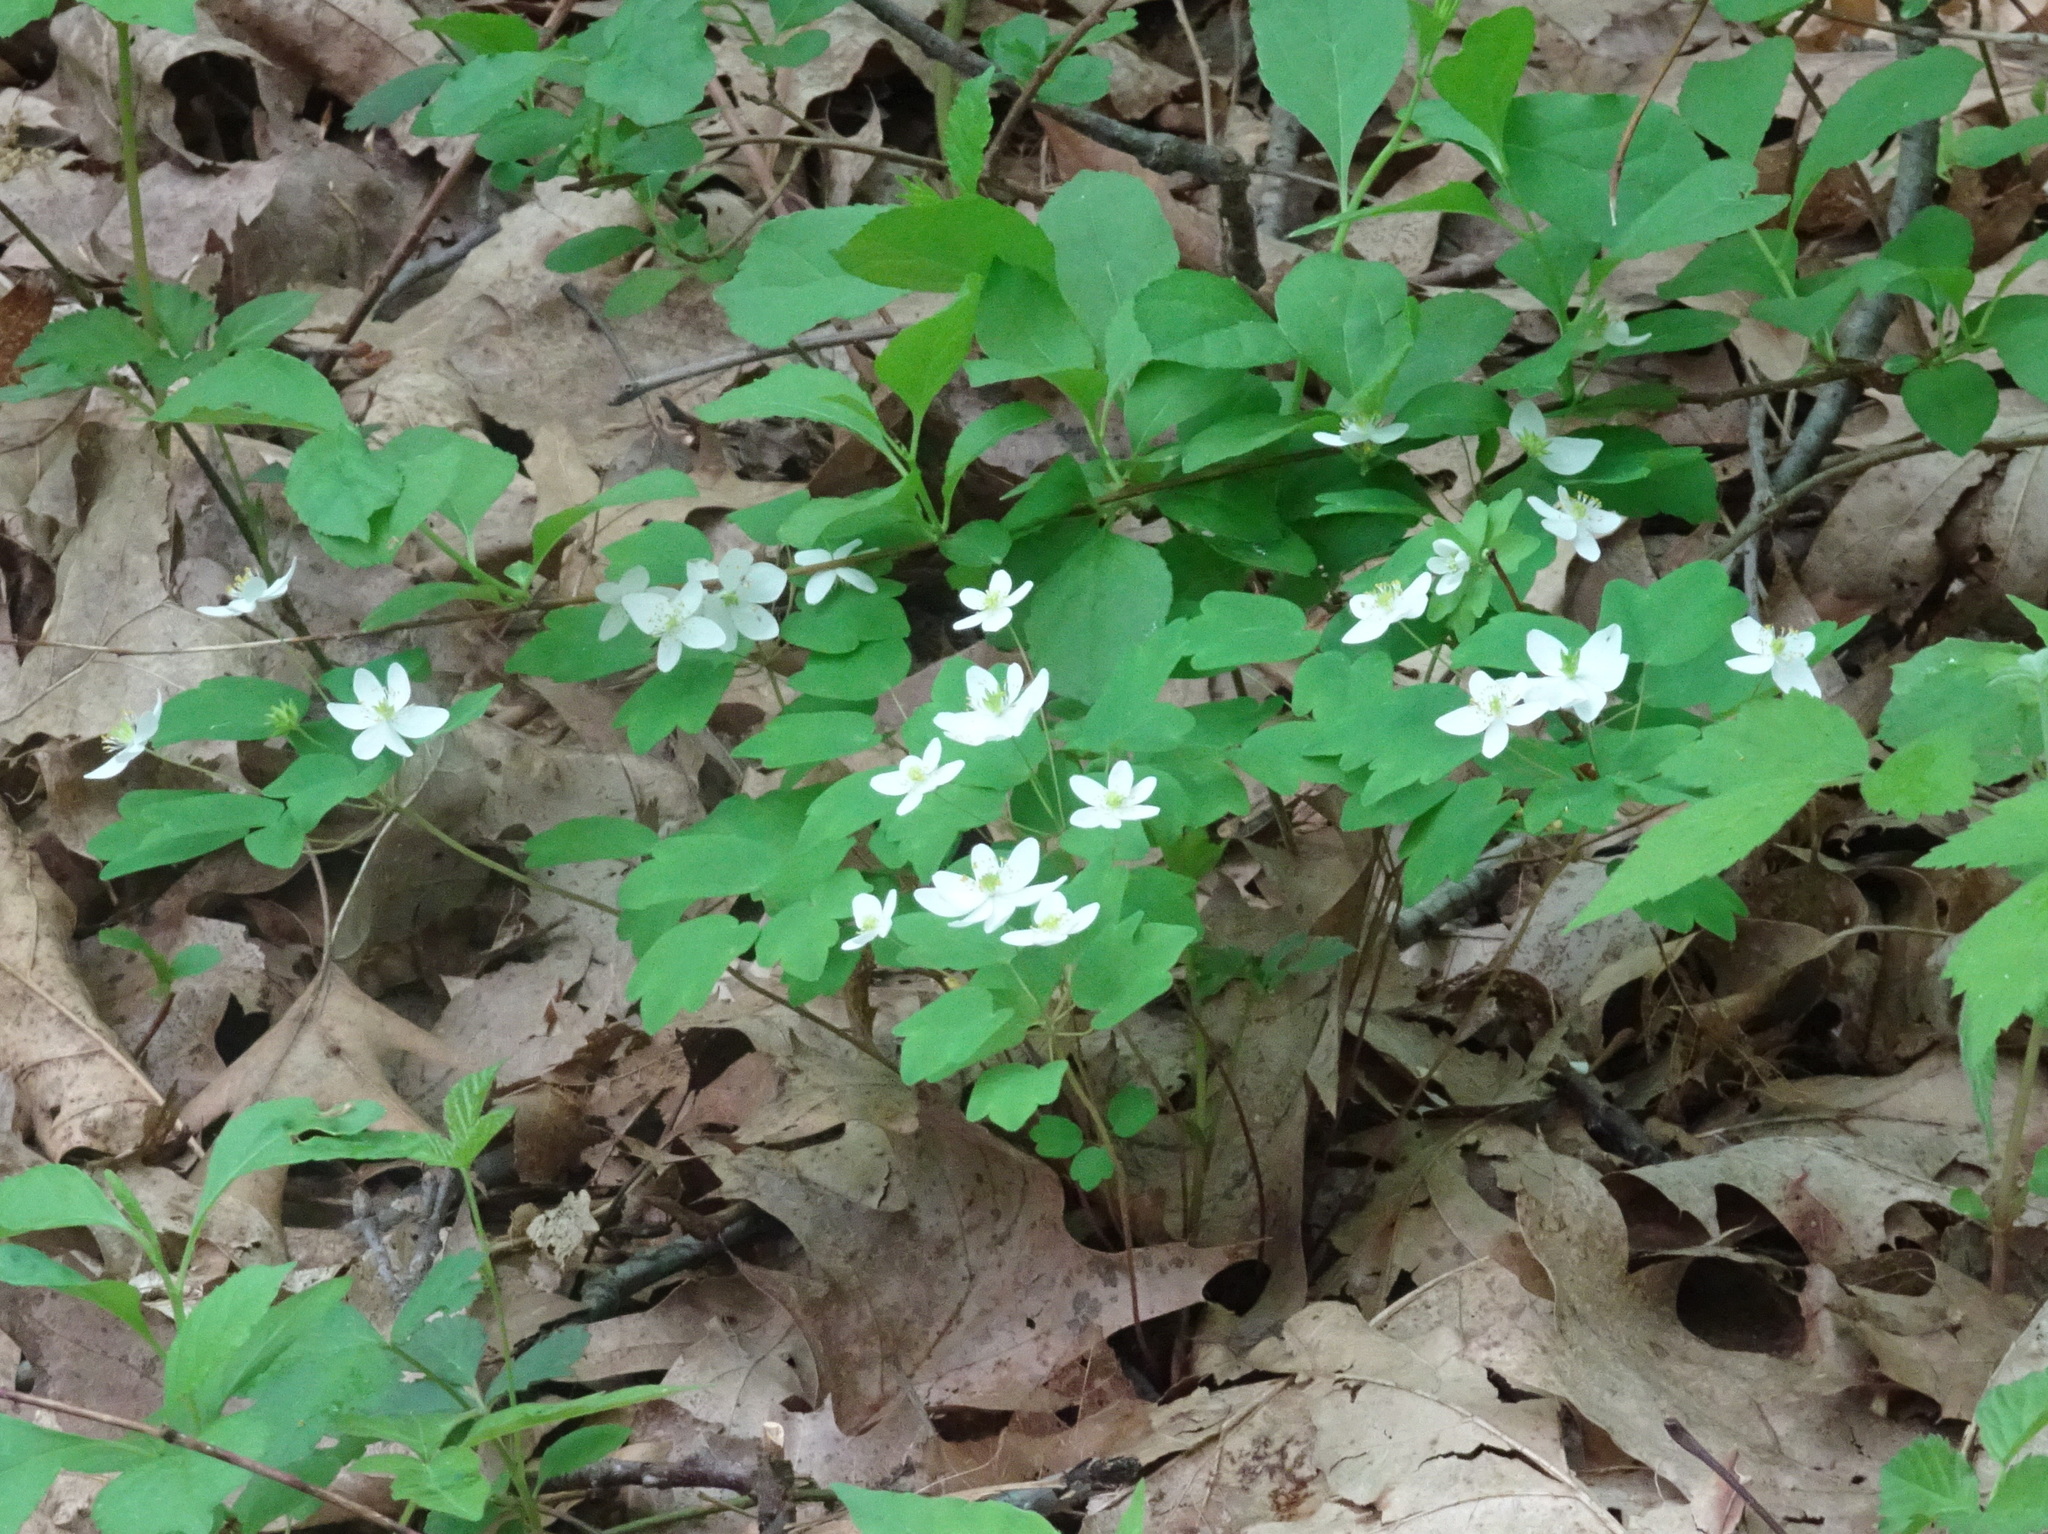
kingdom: Plantae
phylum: Tracheophyta
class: Magnoliopsida
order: Ranunculales
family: Ranunculaceae
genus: Thalictrum
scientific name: Thalictrum thalictroides
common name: Rue-anemone
